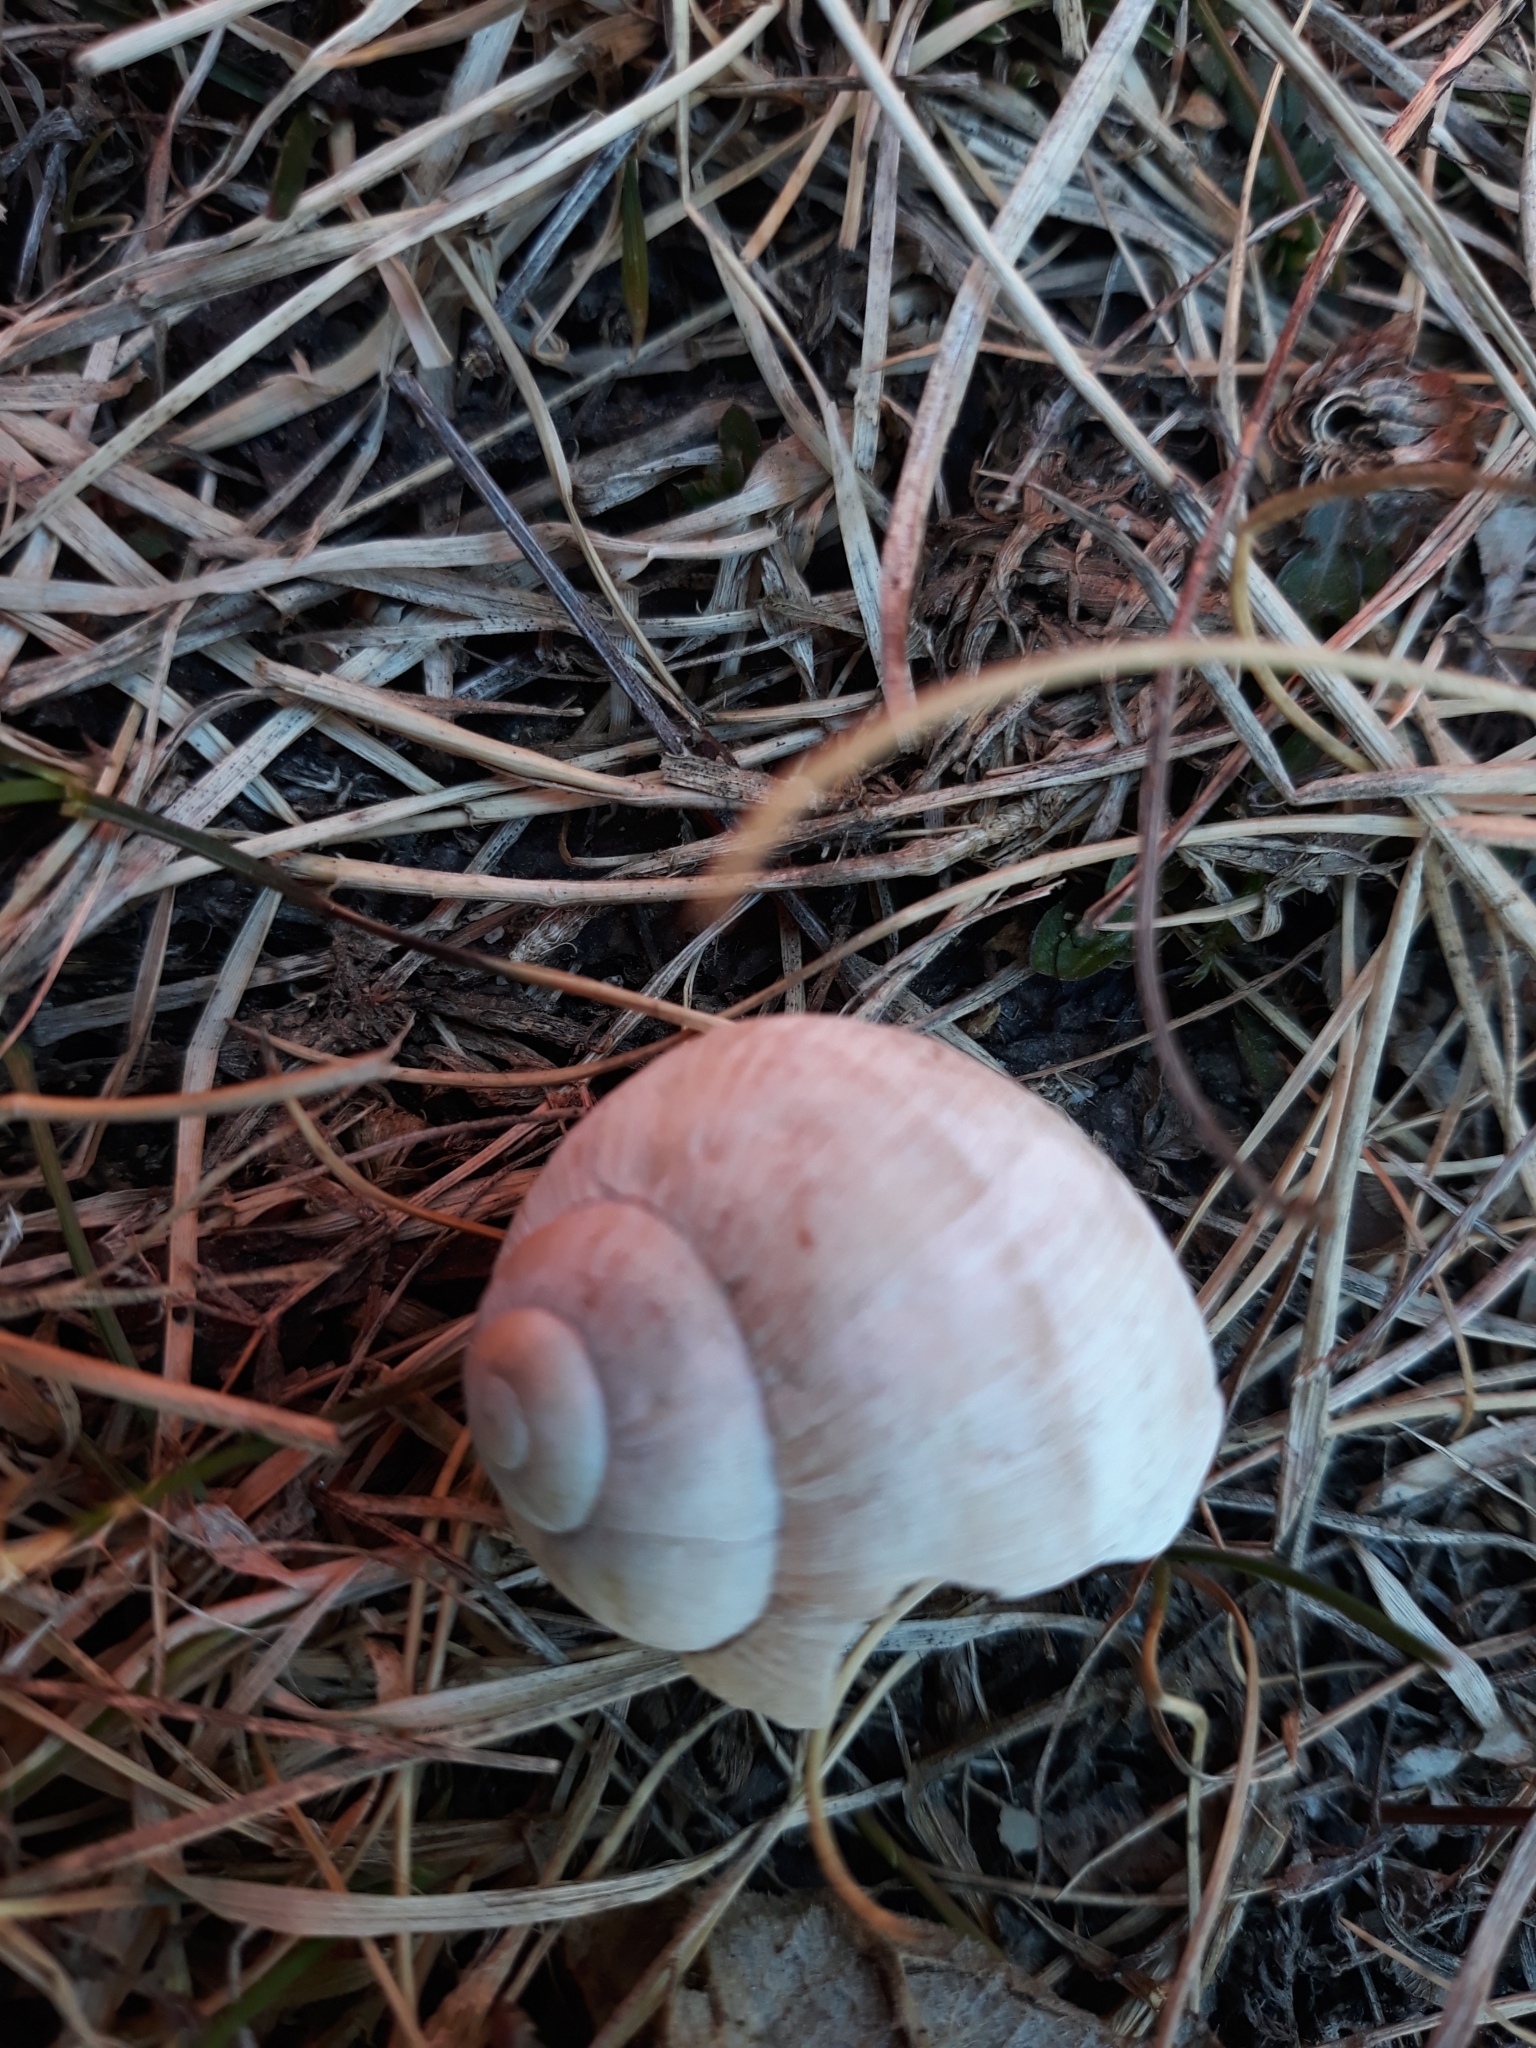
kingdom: Animalia
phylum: Mollusca
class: Gastropoda
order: Stylommatophora
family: Helicidae
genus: Helix
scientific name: Helix pomatia
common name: Roman snail
